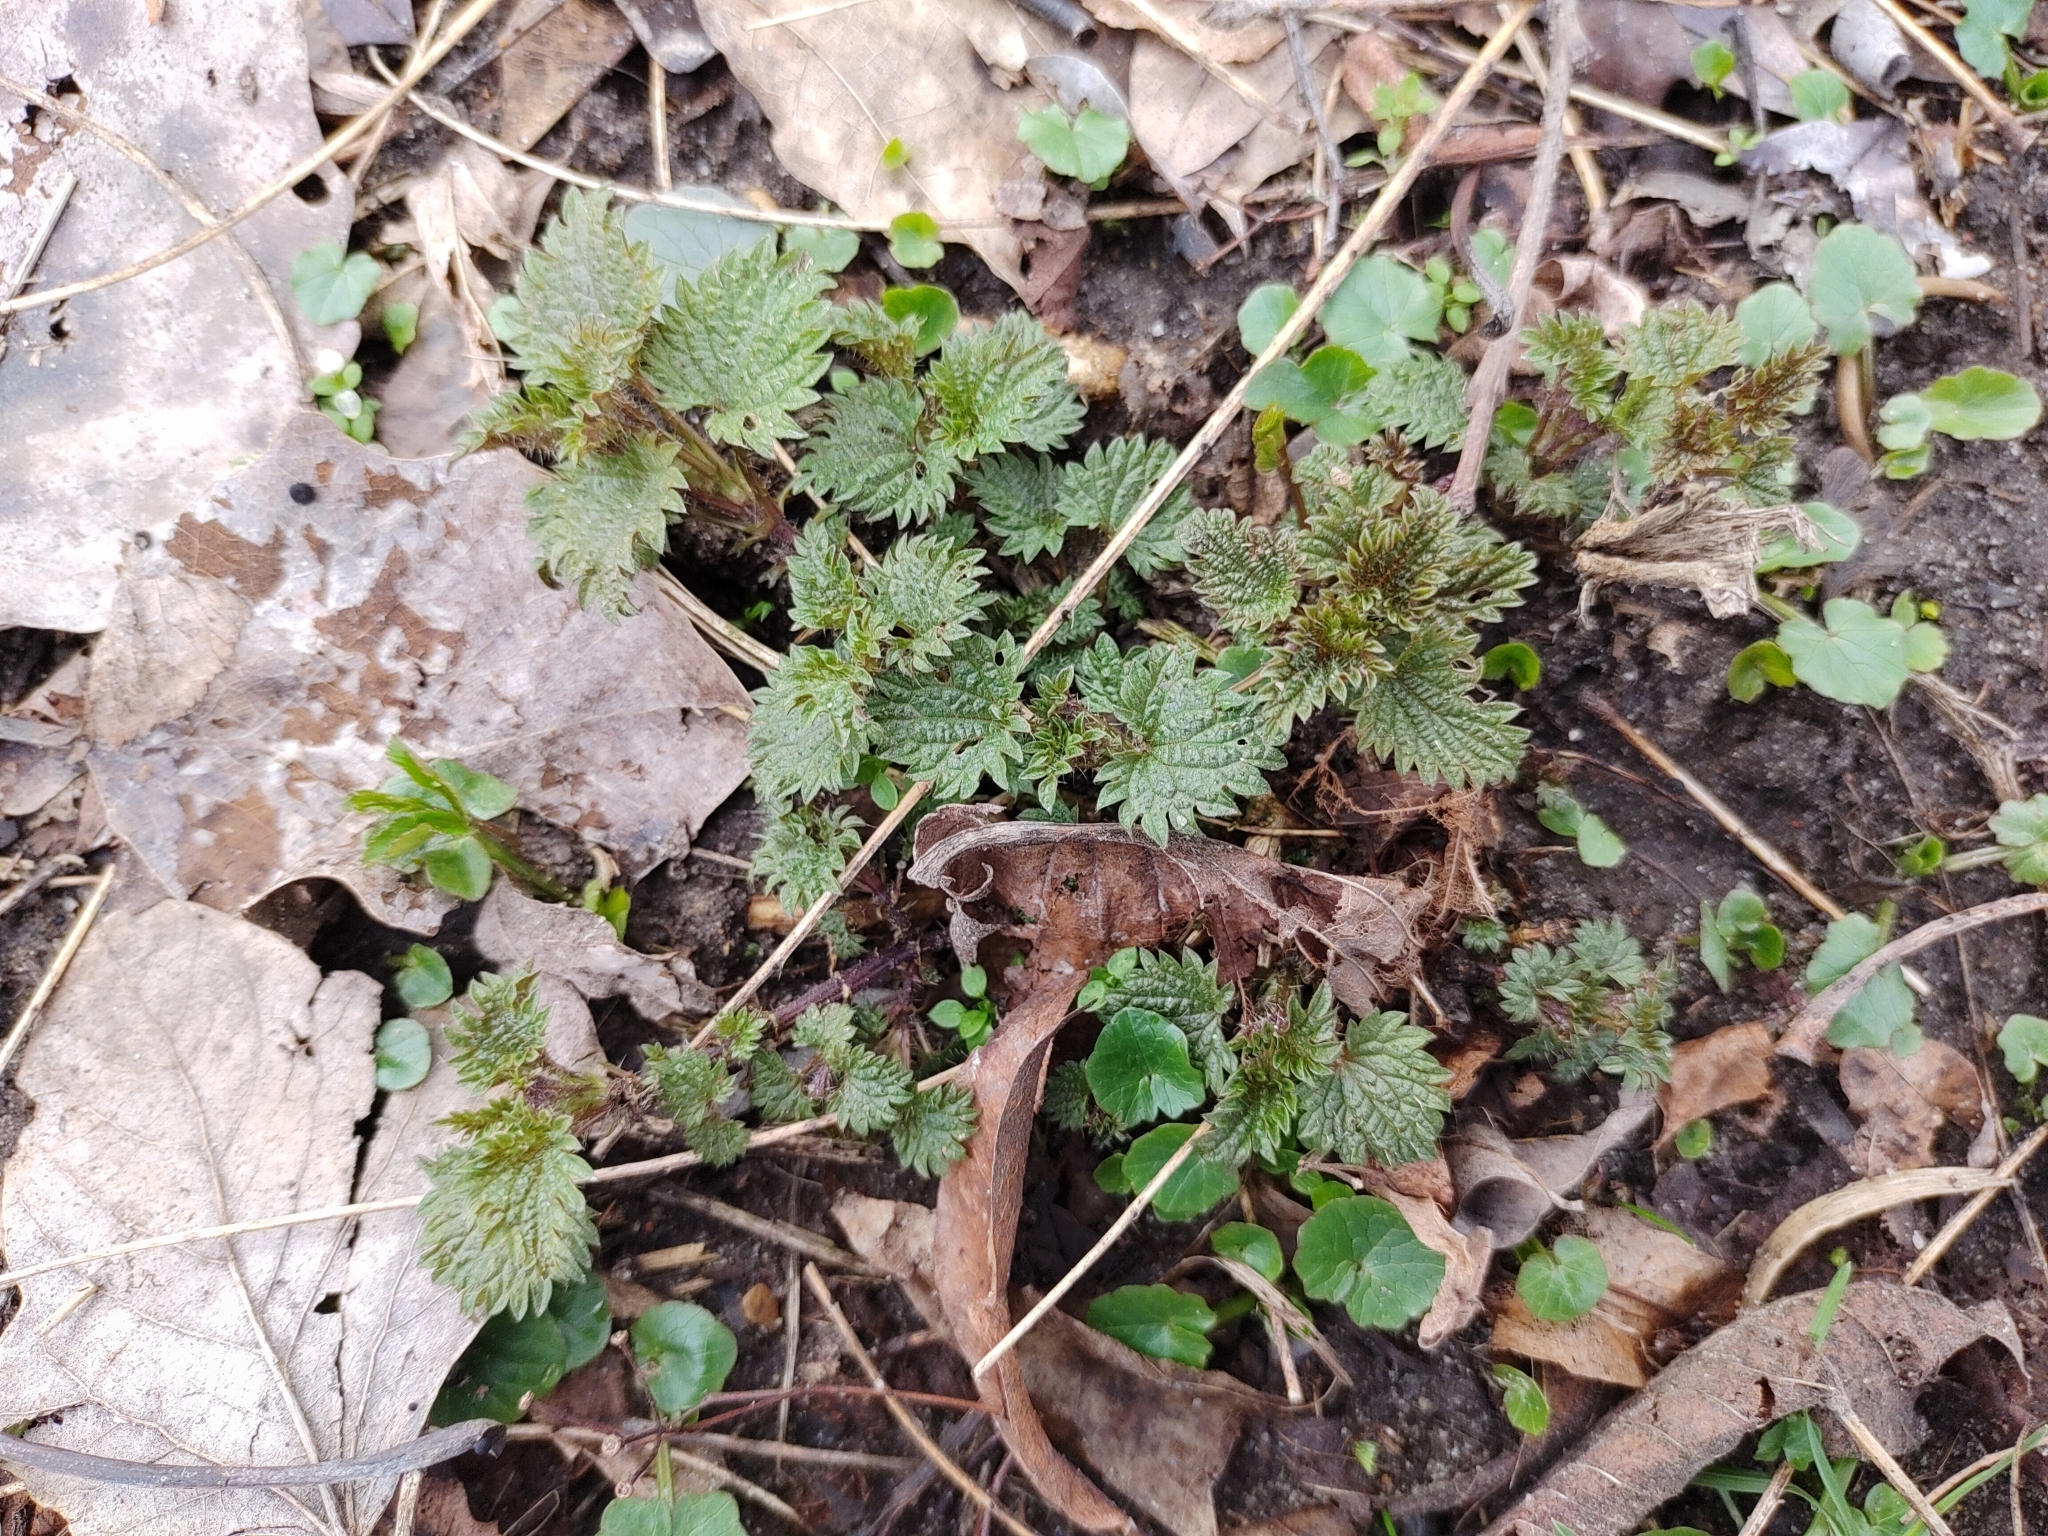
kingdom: Plantae
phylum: Tracheophyta
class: Magnoliopsida
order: Rosales
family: Urticaceae
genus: Urtica
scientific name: Urtica dioica
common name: Common nettle
